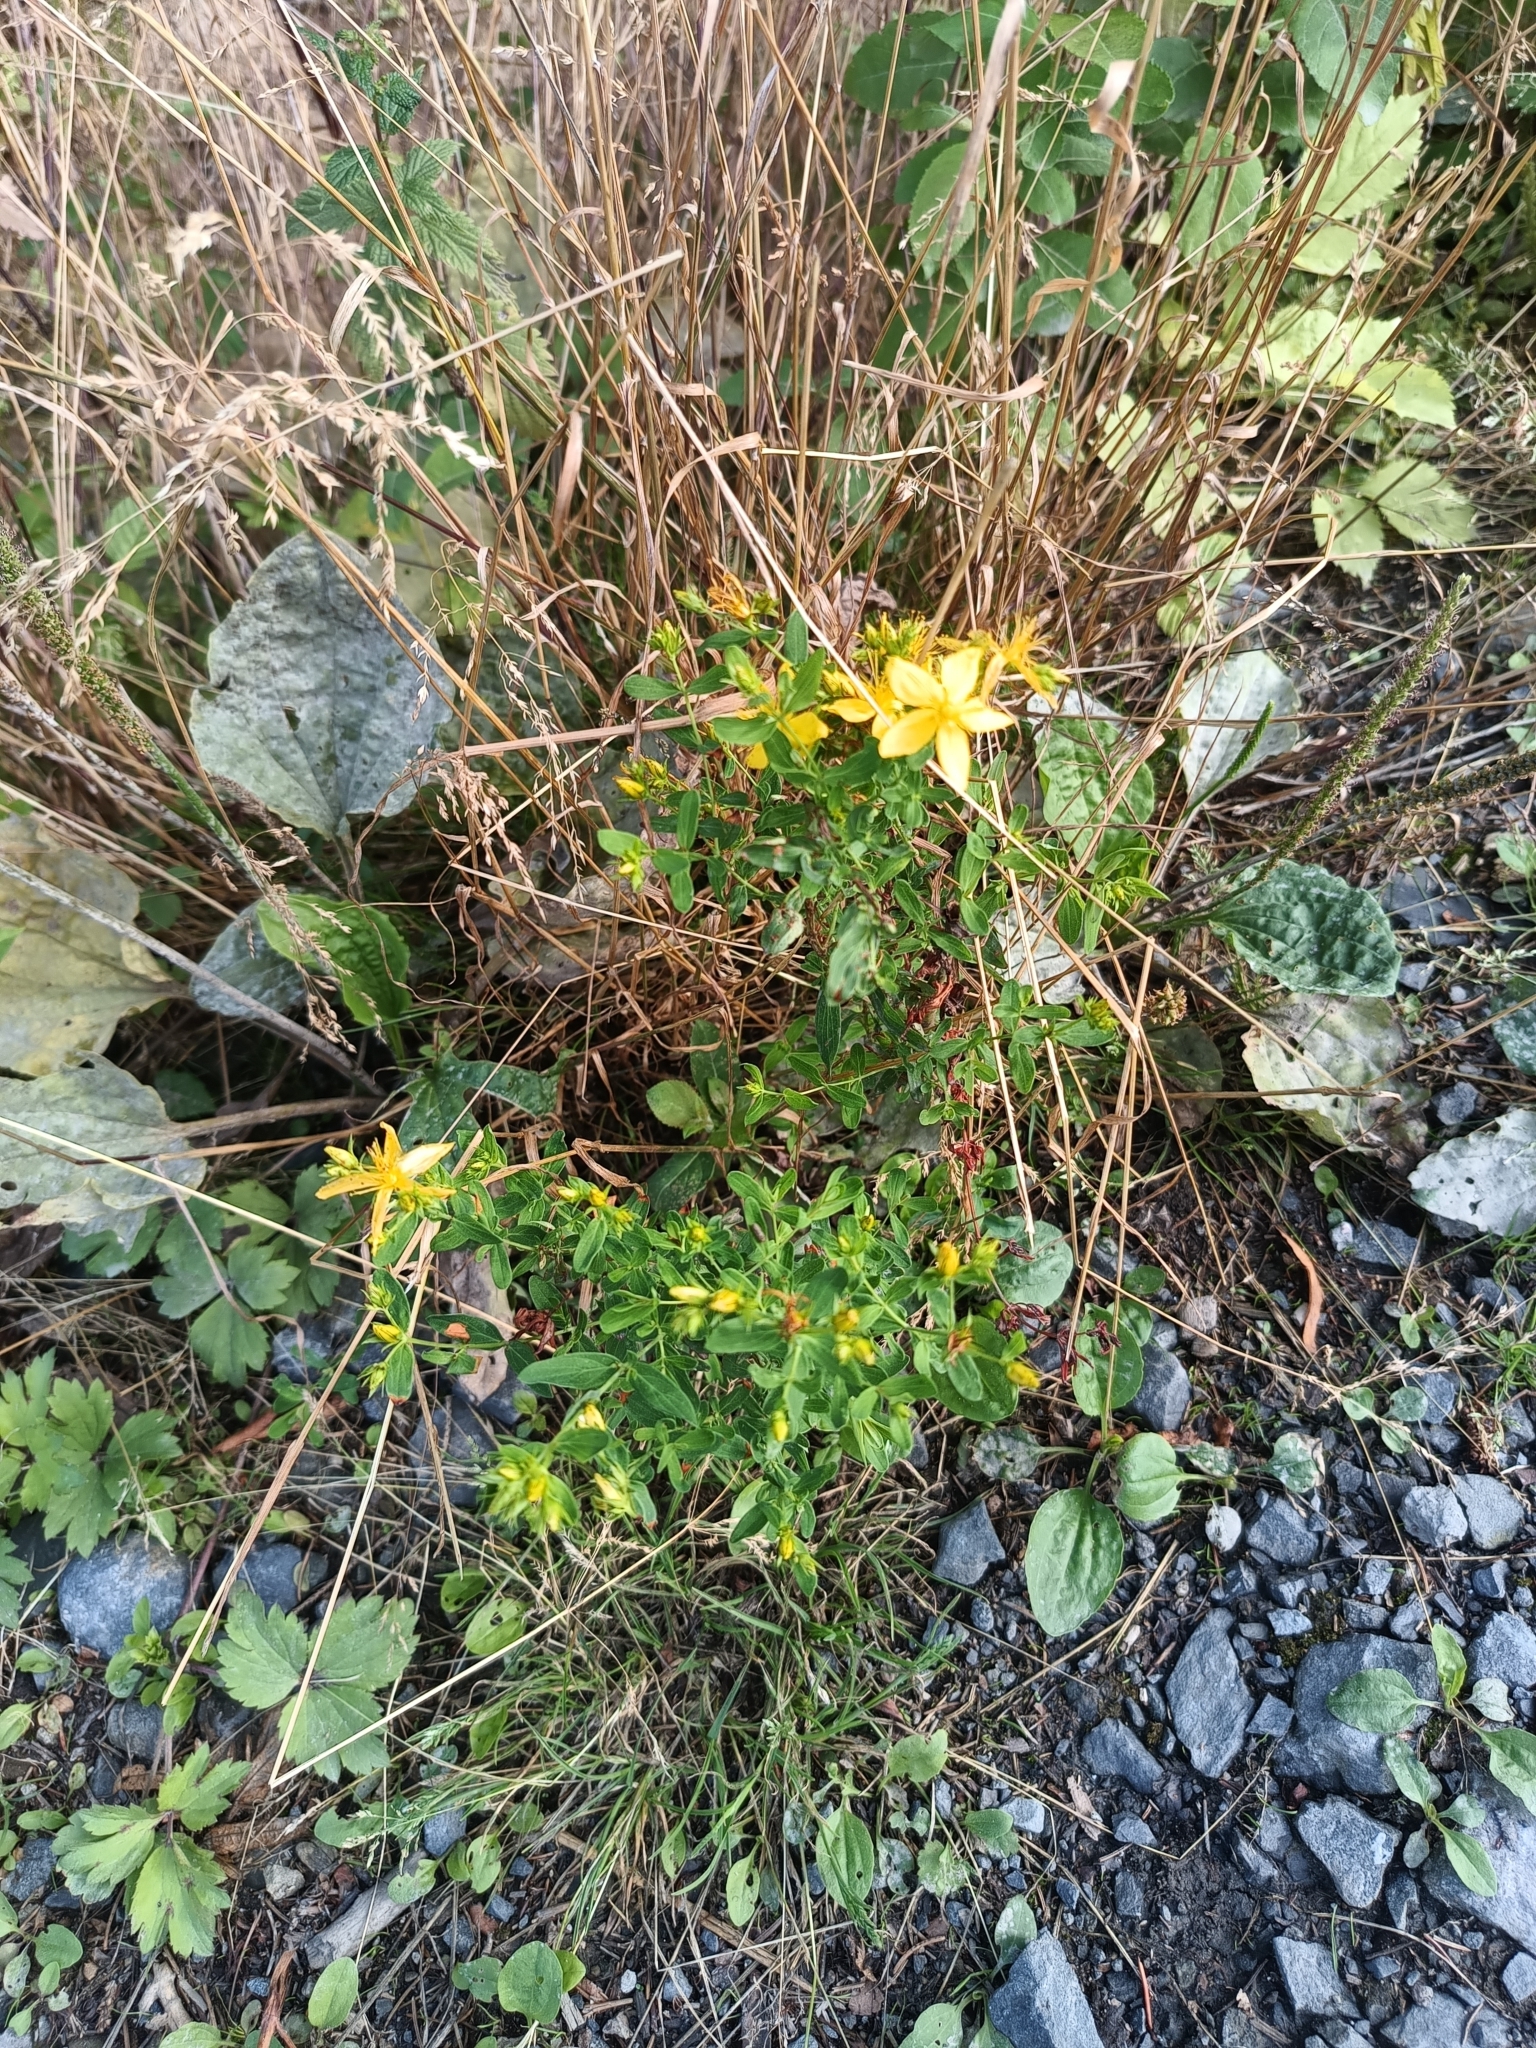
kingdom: Plantae
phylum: Tracheophyta
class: Magnoliopsida
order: Malpighiales
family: Hypericaceae
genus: Hypericum
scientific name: Hypericum perforatum
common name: Common st. johnswort
